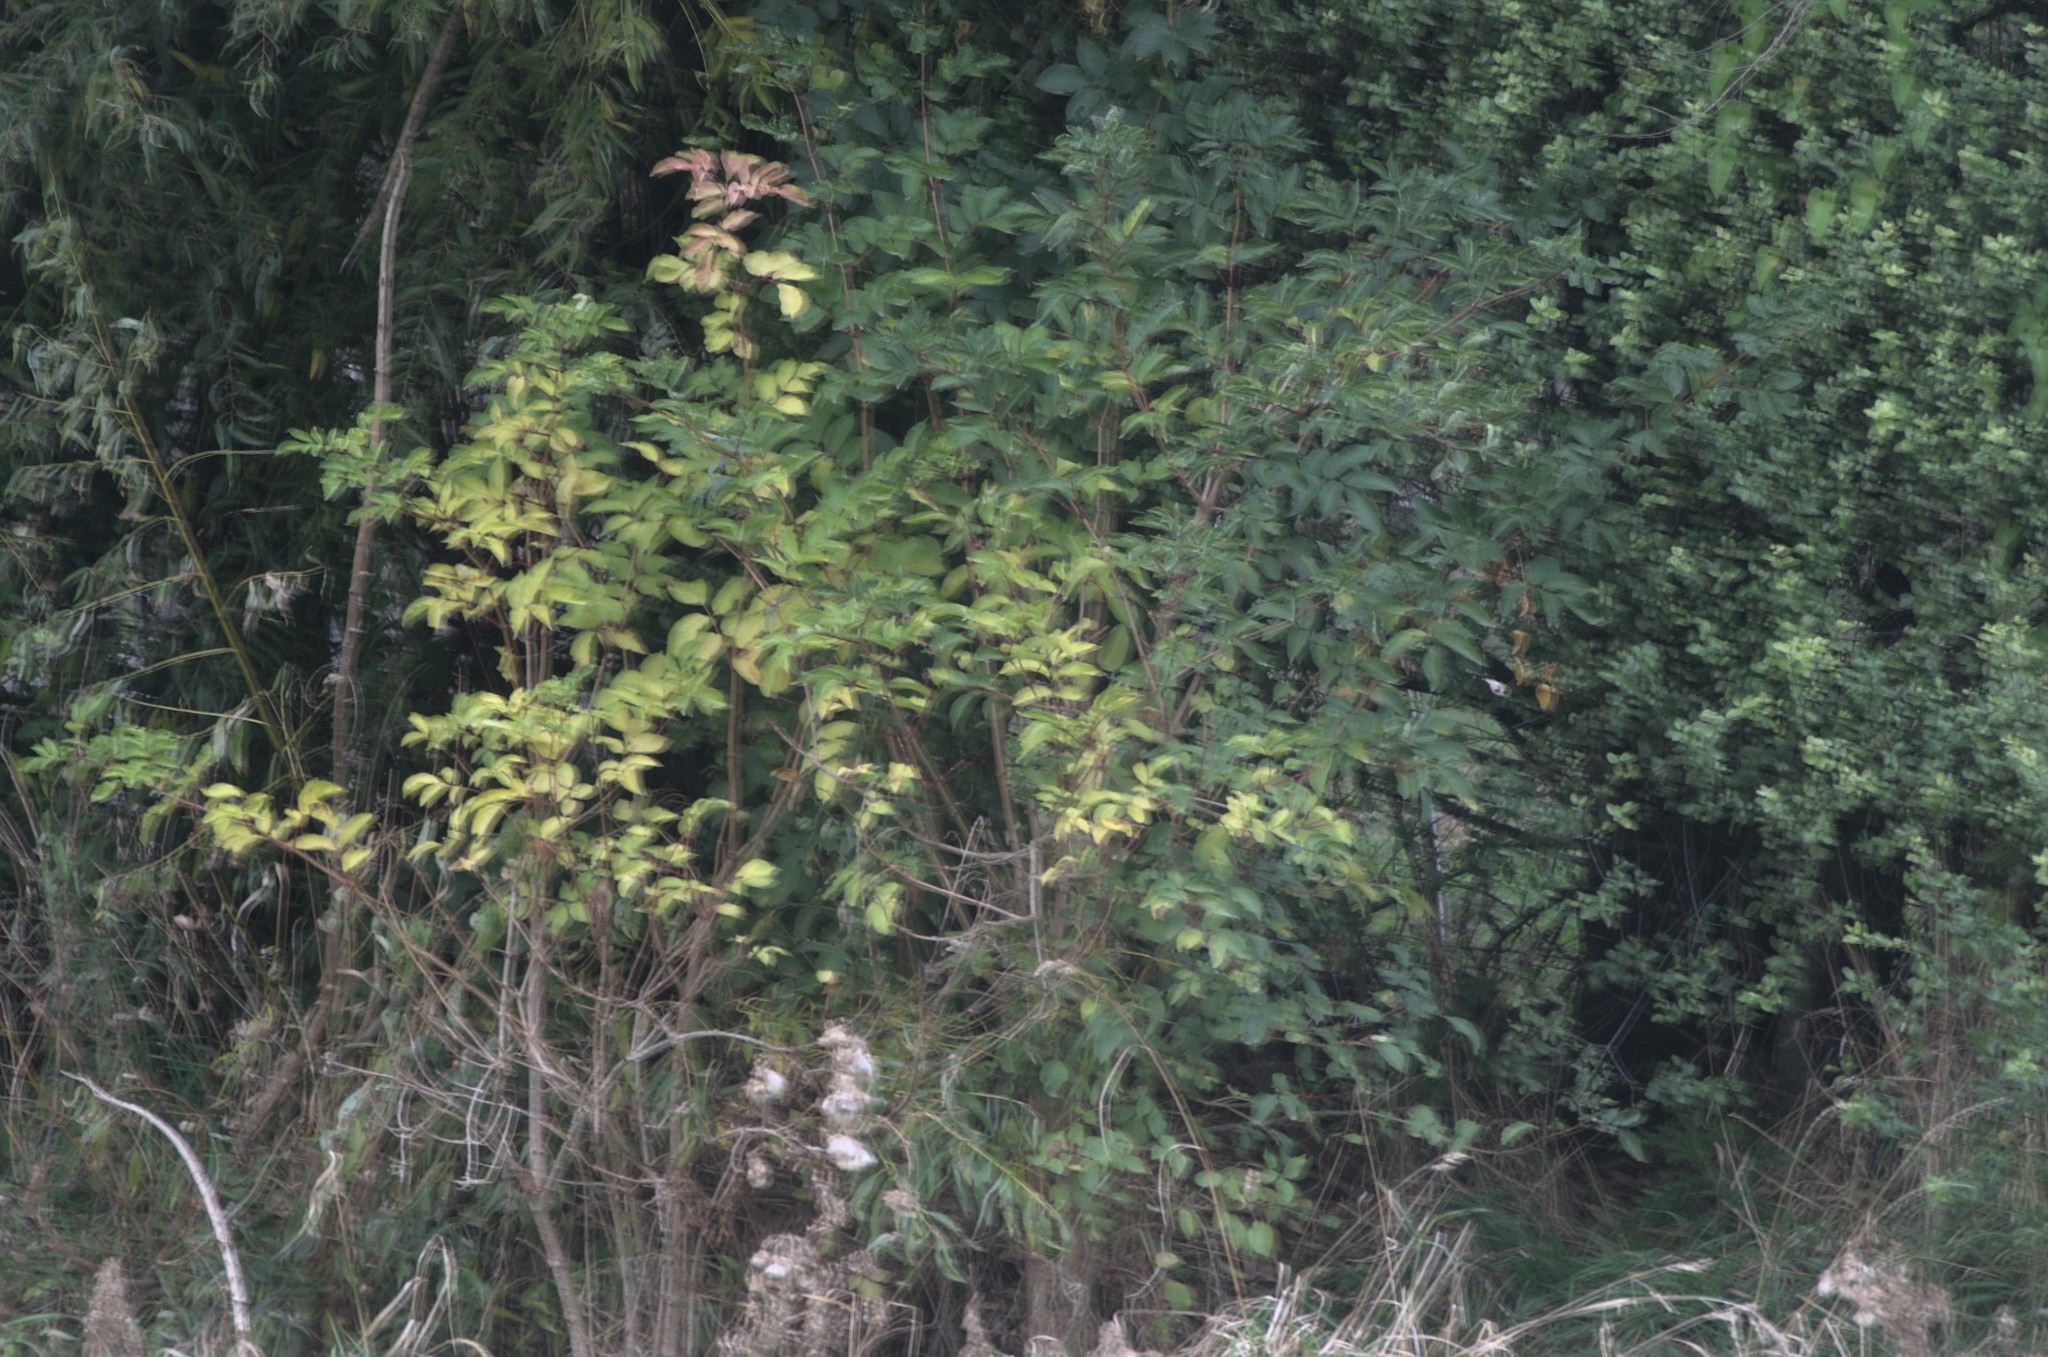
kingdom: Plantae
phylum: Tracheophyta
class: Magnoliopsida
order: Dipsacales
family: Viburnaceae
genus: Sambucus
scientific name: Sambucus nigra
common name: Elder
